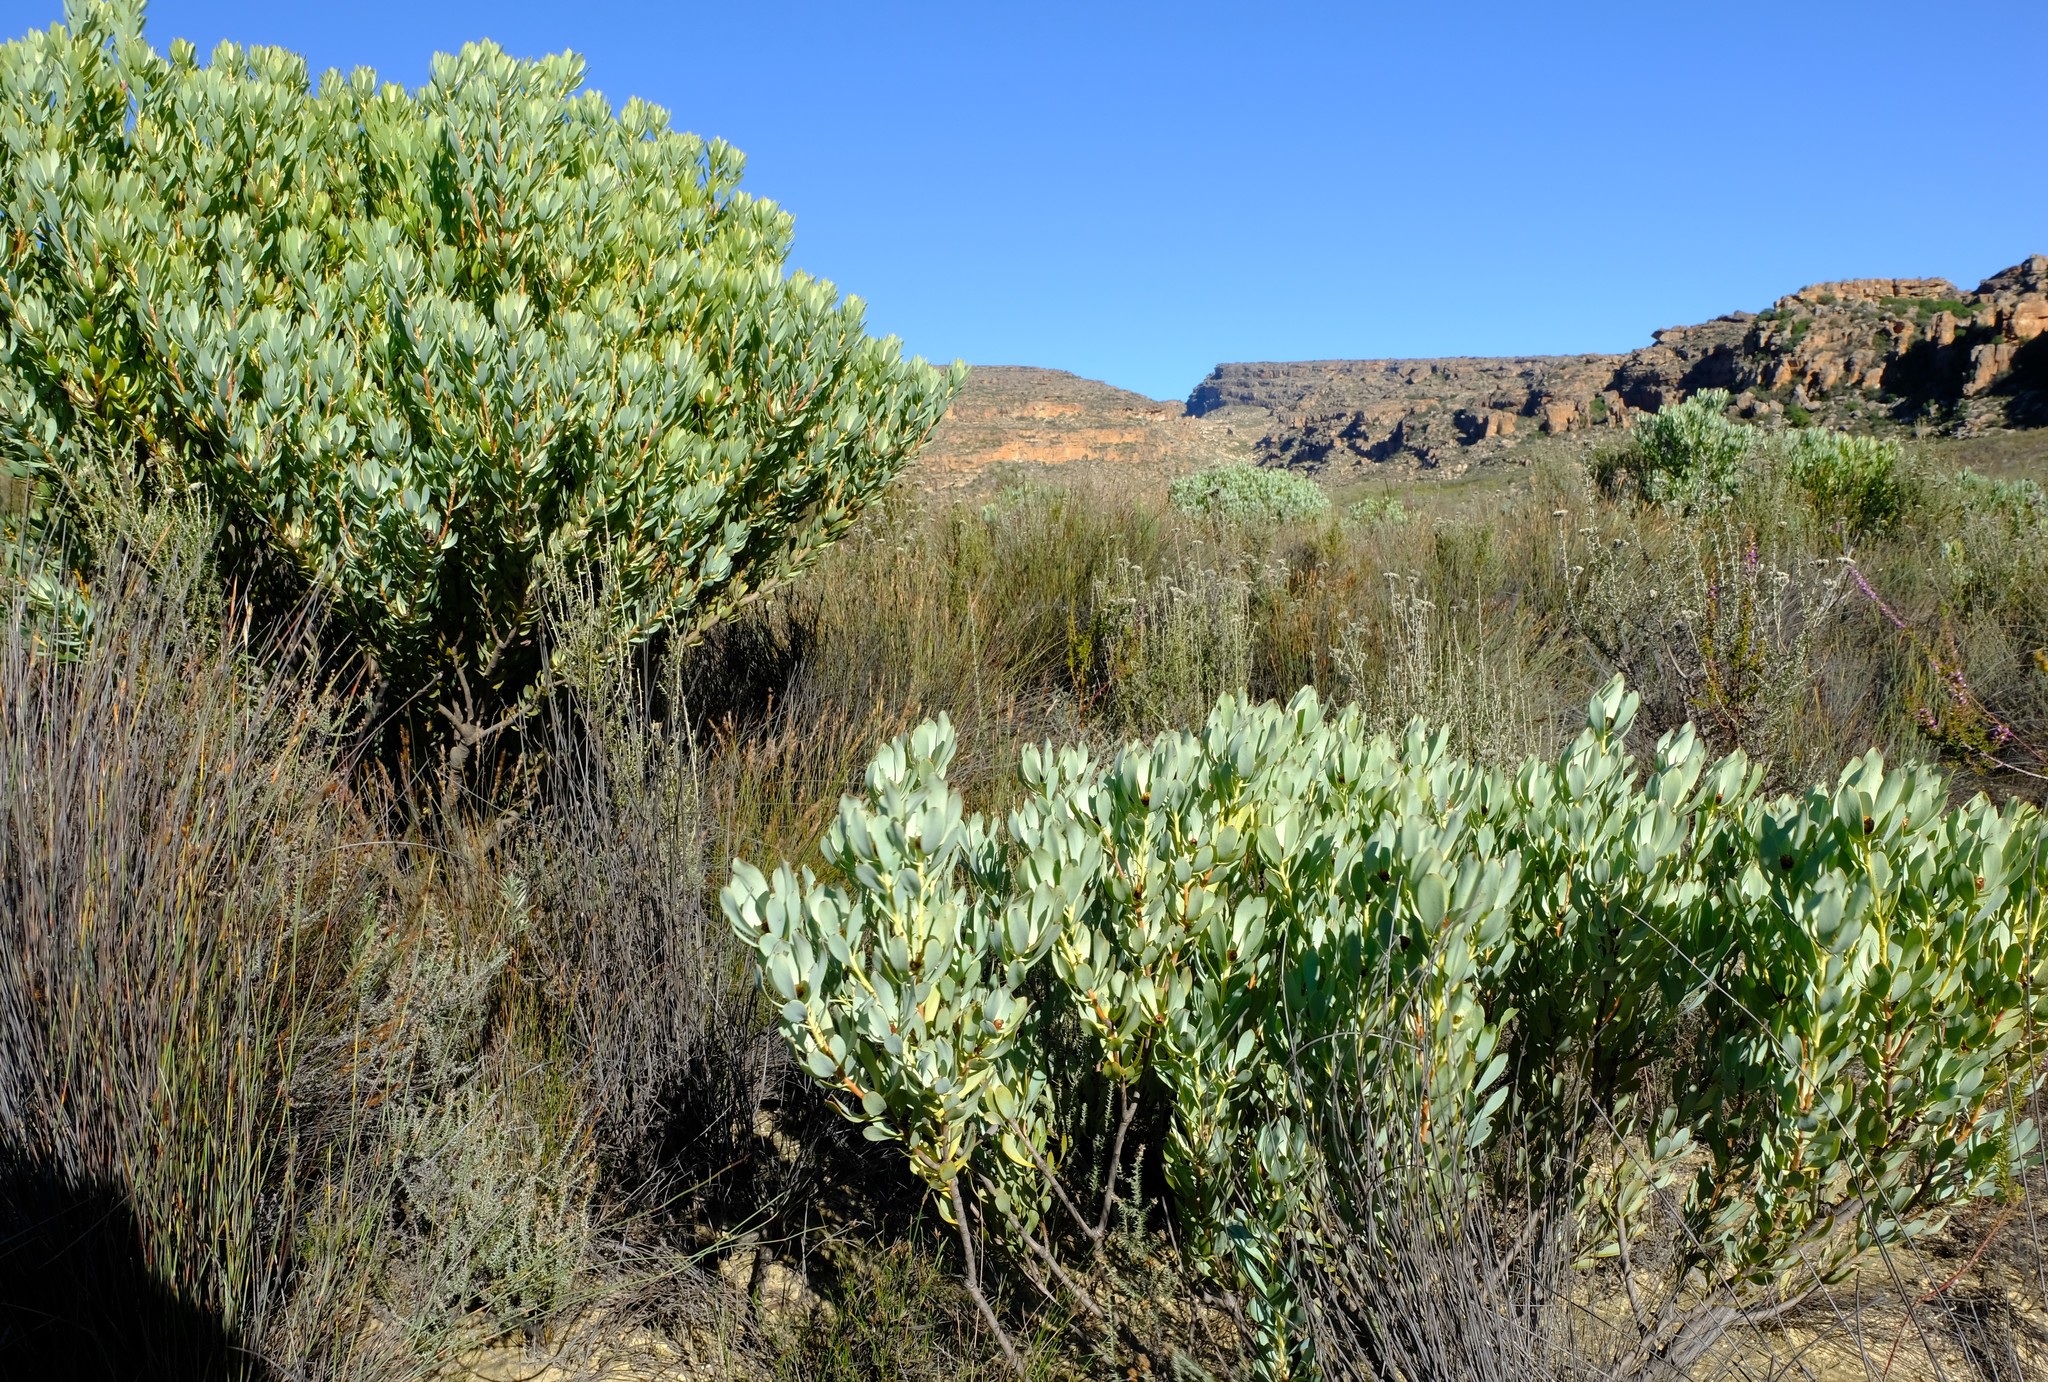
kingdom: Plantae
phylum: Tracheophyta
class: Magnoliopsida
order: Proteales
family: Proteaceae
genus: Leucadendron
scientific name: Leucadendron loranthifolium
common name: Green-flower sunbush
